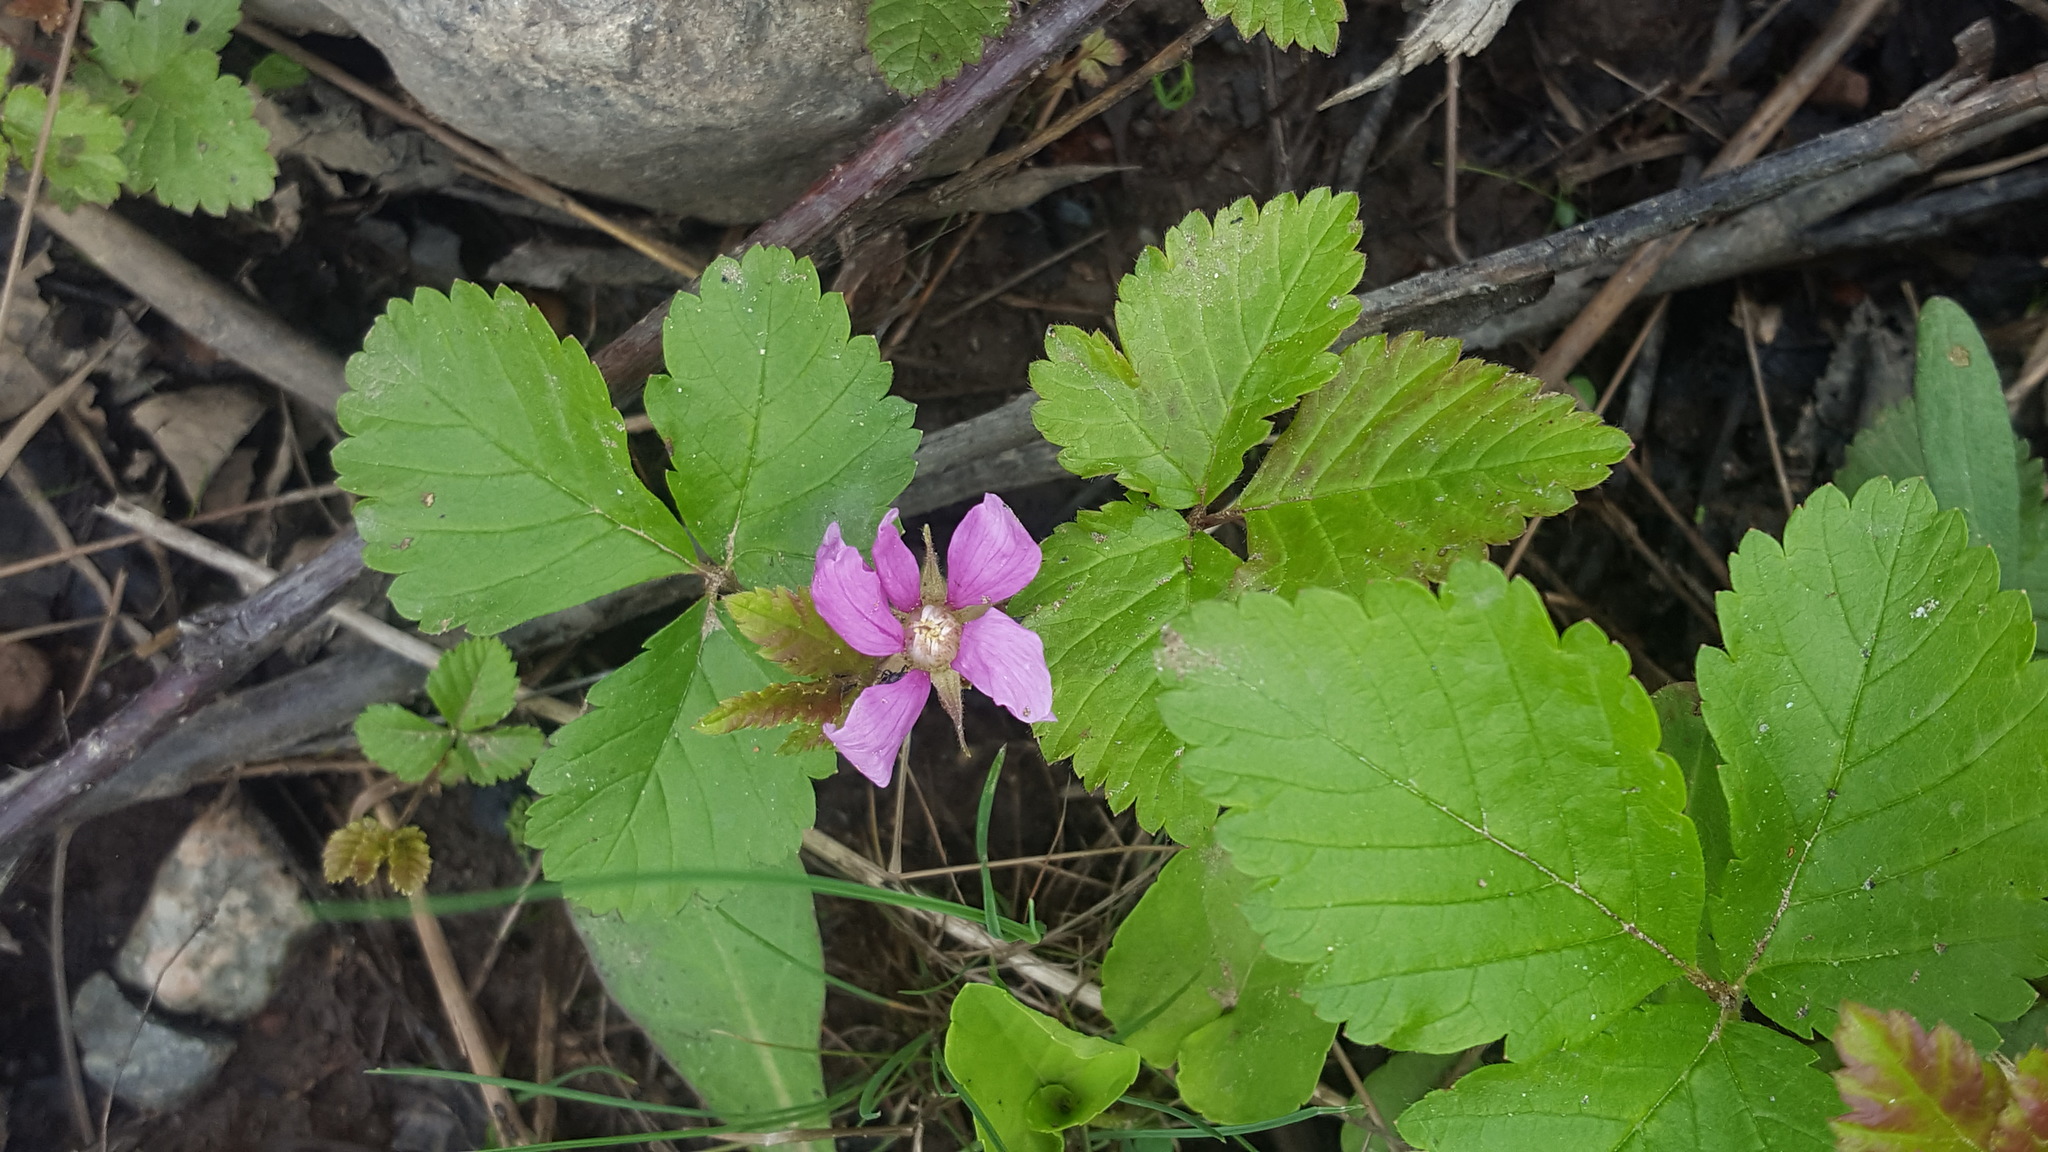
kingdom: Plantae
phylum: Tracheophyta
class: Magnoliopsida
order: Rosales
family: Rosaceae
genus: Rubus
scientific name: Rubus arcticus
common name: Arctic bramble
